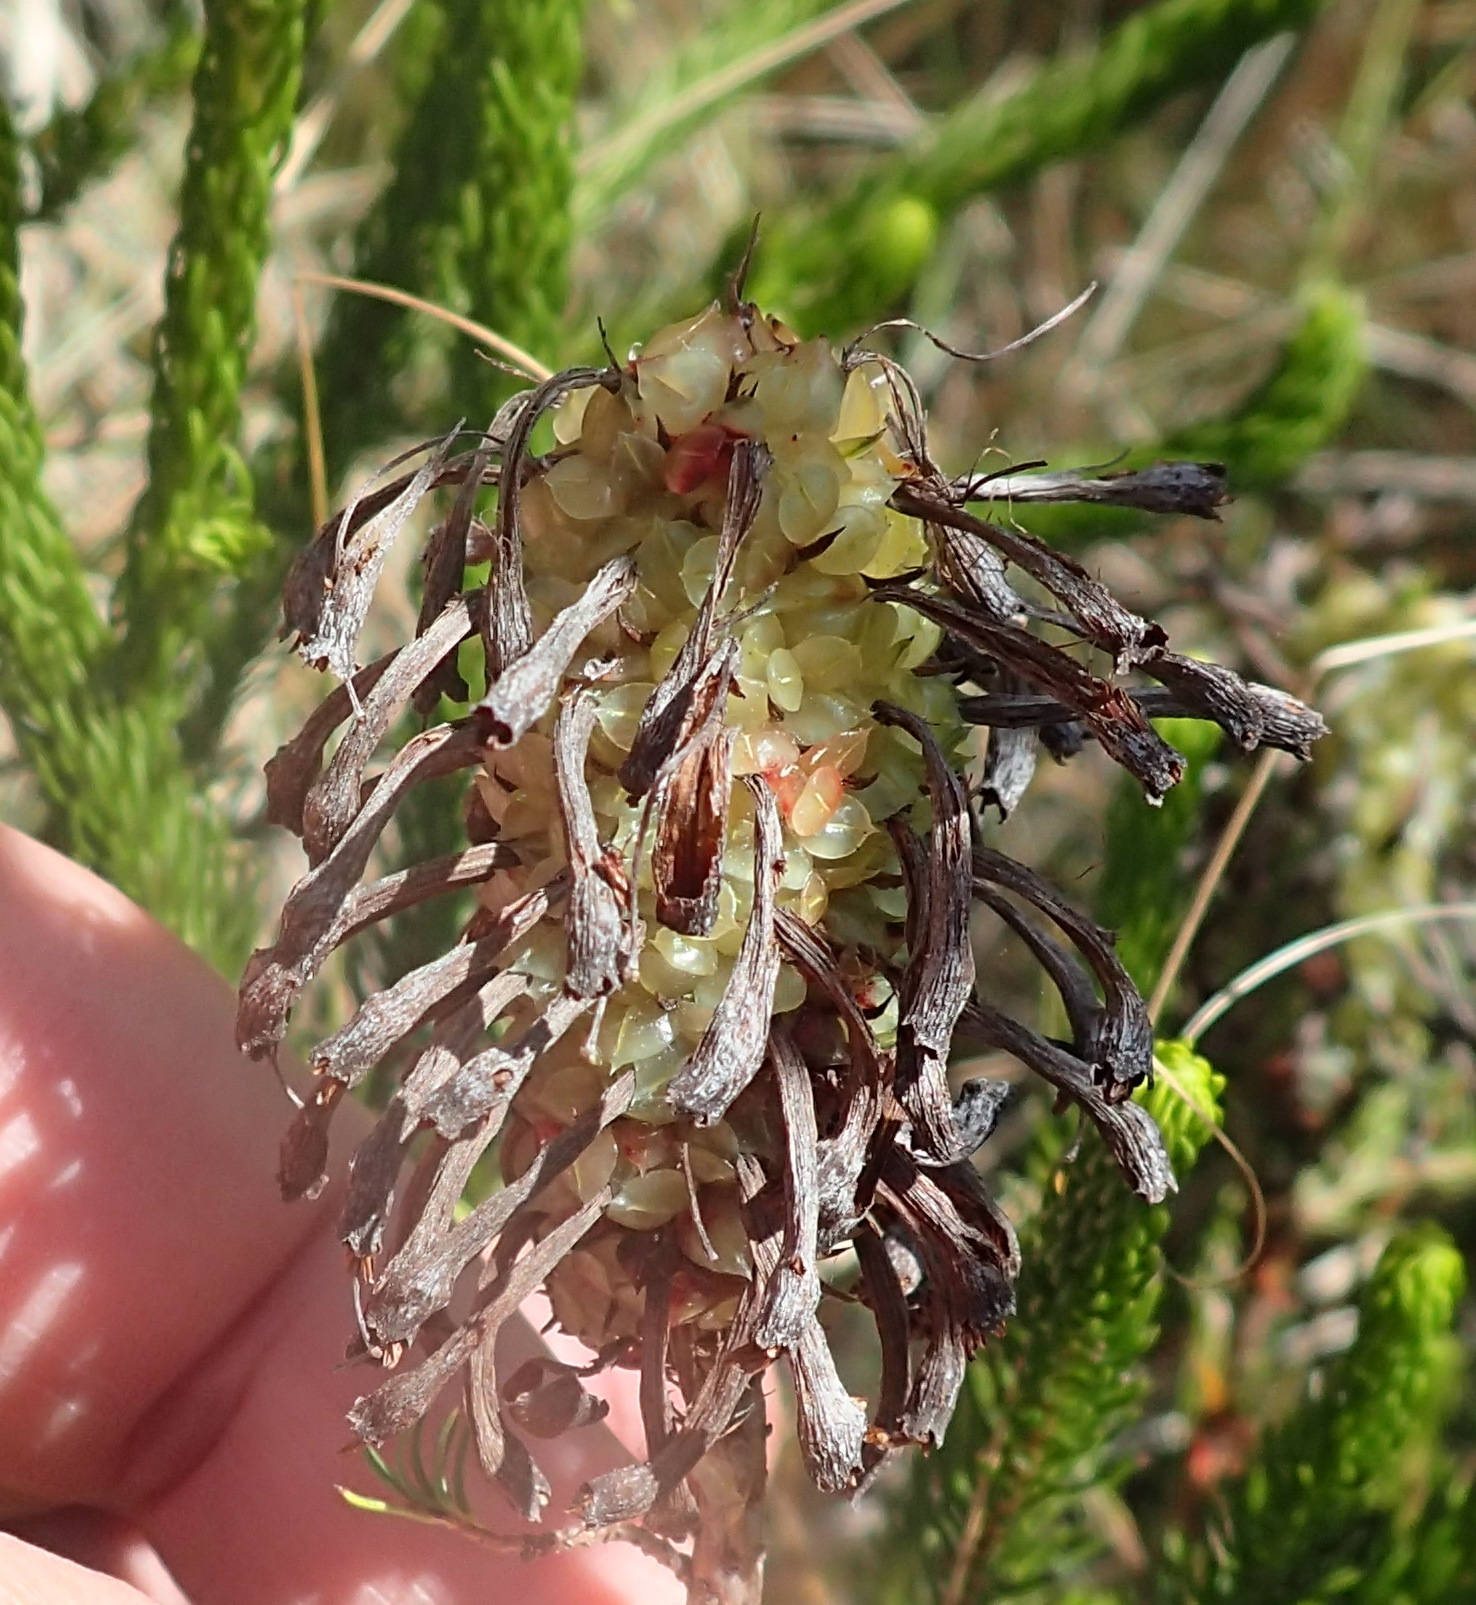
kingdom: Plantae
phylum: Tracheophyta
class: Magnoliopsida
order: Ericales
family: Ericaceae
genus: Erica
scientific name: Erica sessiliflora
